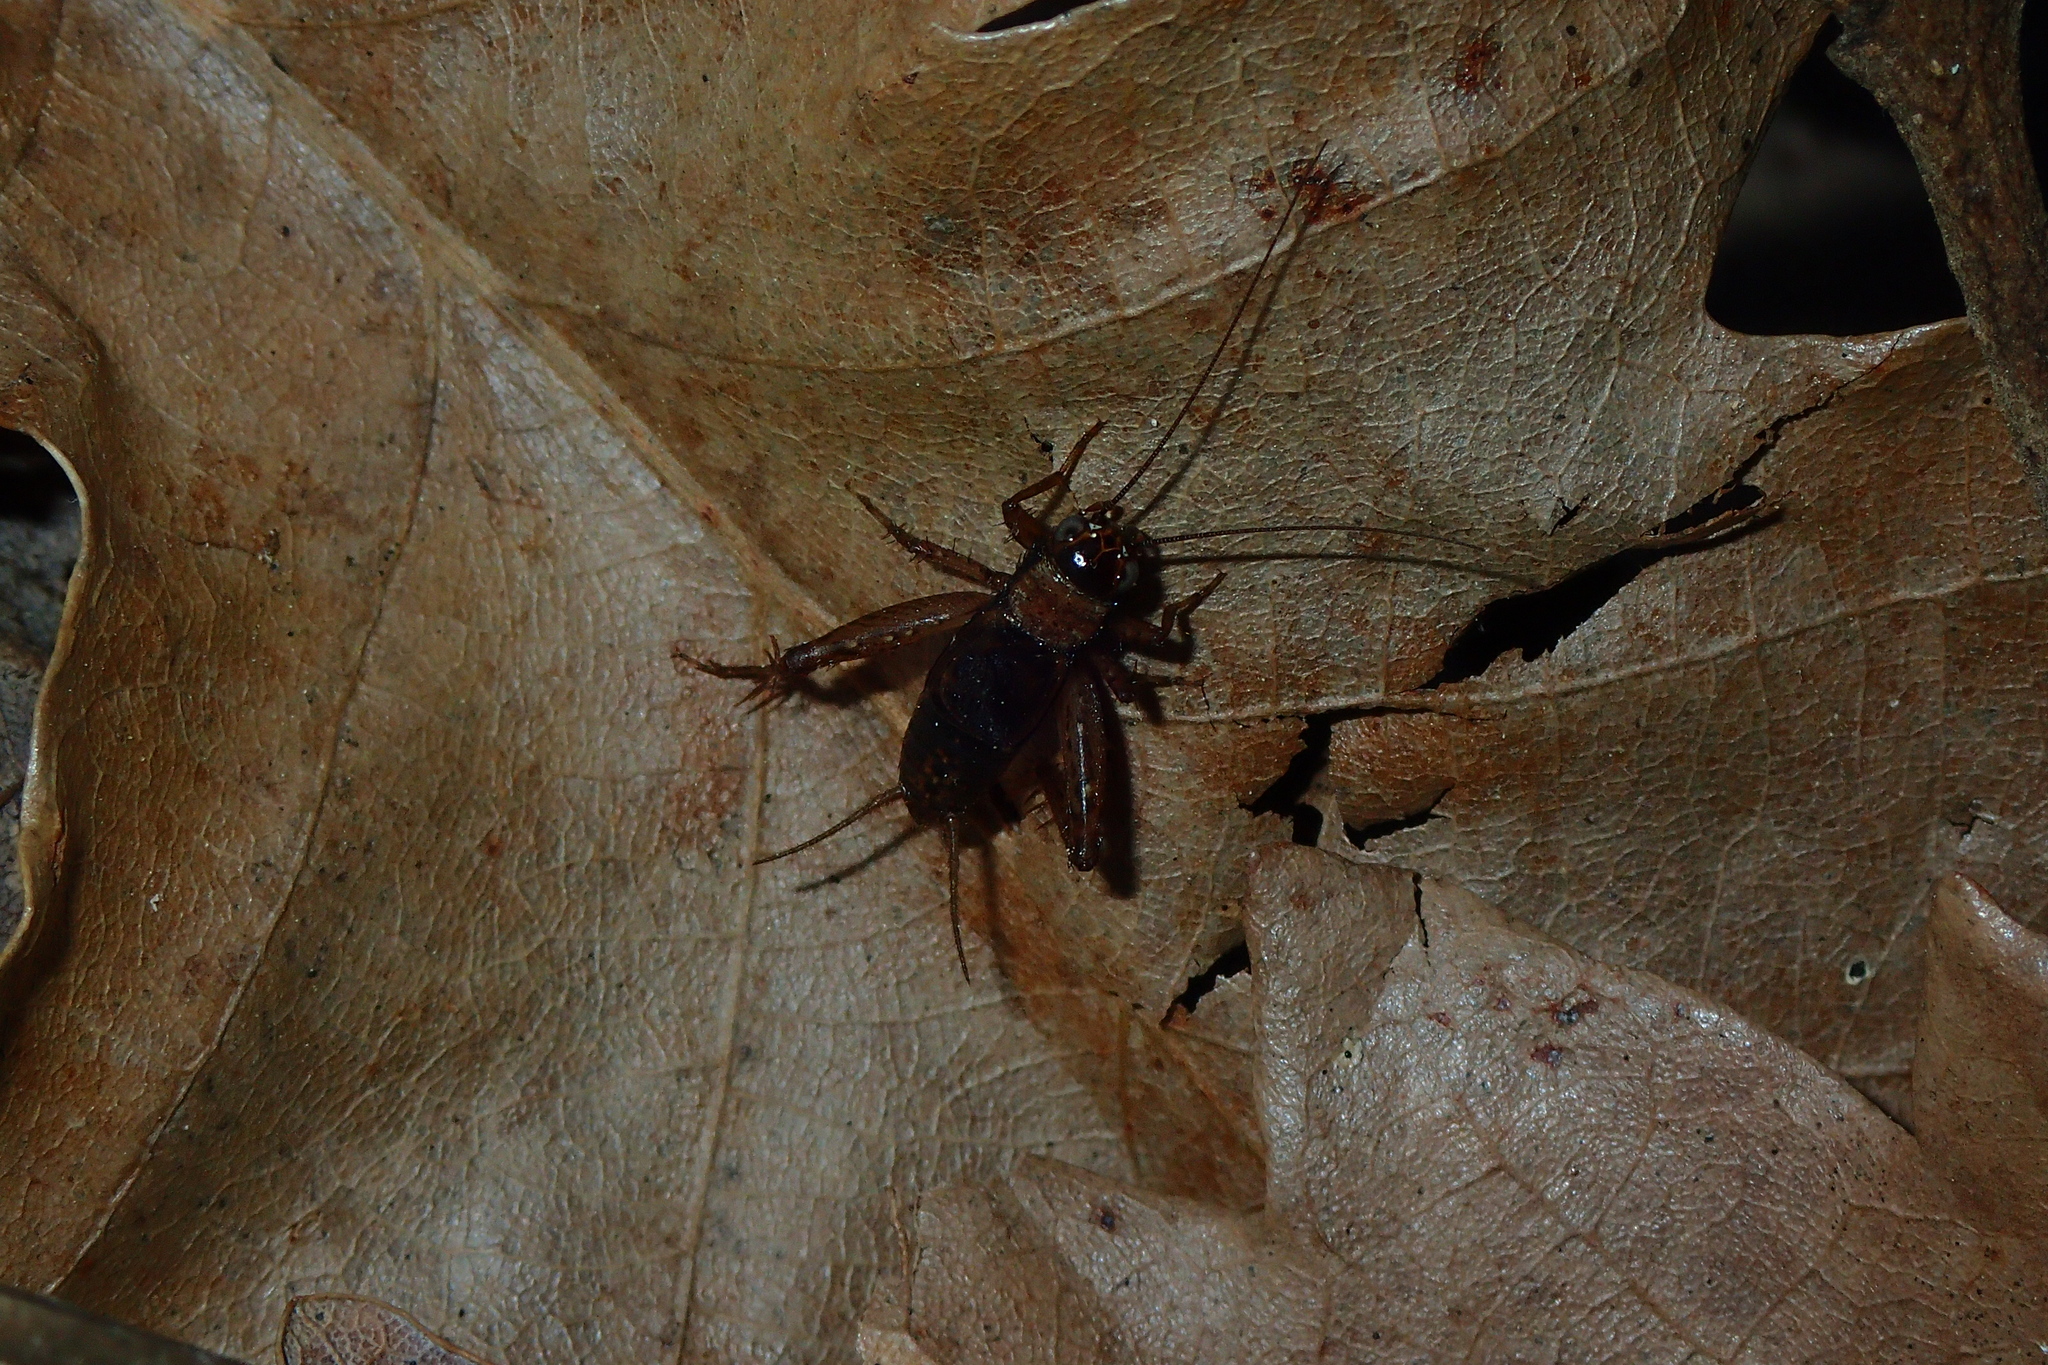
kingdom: Animalia
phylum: Arthropoda
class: Insecta
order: Orthoptera
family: Trigonidiidae
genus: Nemobius
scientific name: Nemobius sylvestris
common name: Wood-cricket
